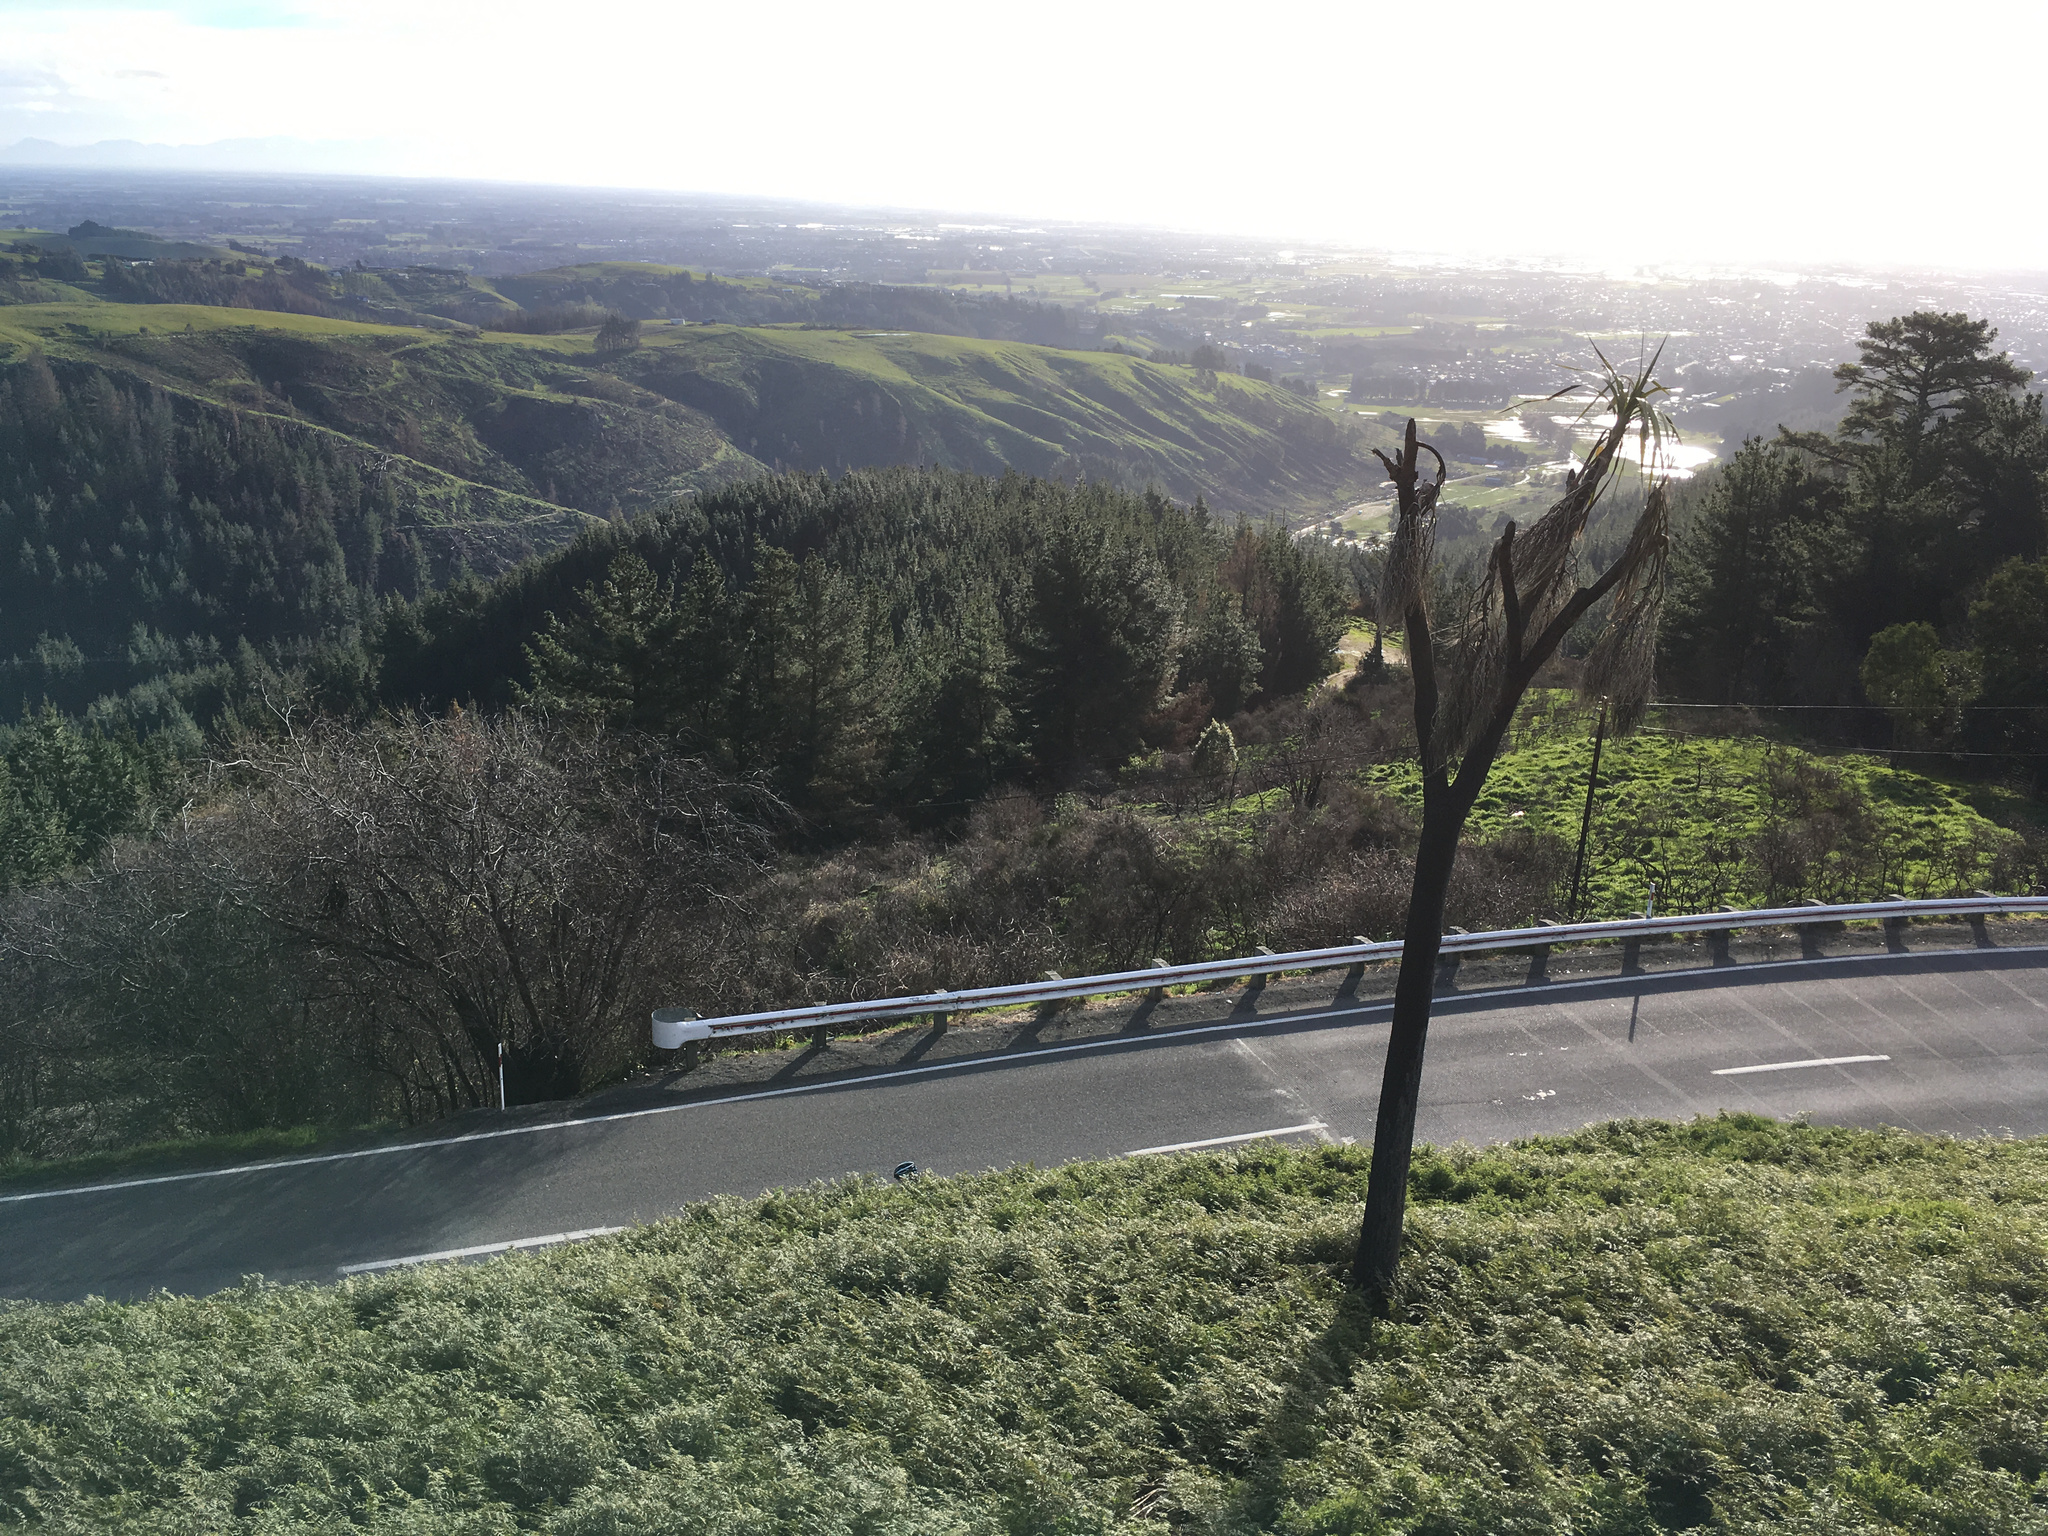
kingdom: Plantae
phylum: Tracheophyta
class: Liliopsida
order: Asparagales
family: Asparagaceae
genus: Cordyline
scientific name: Cordyline australis
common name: Cabbage-palm
